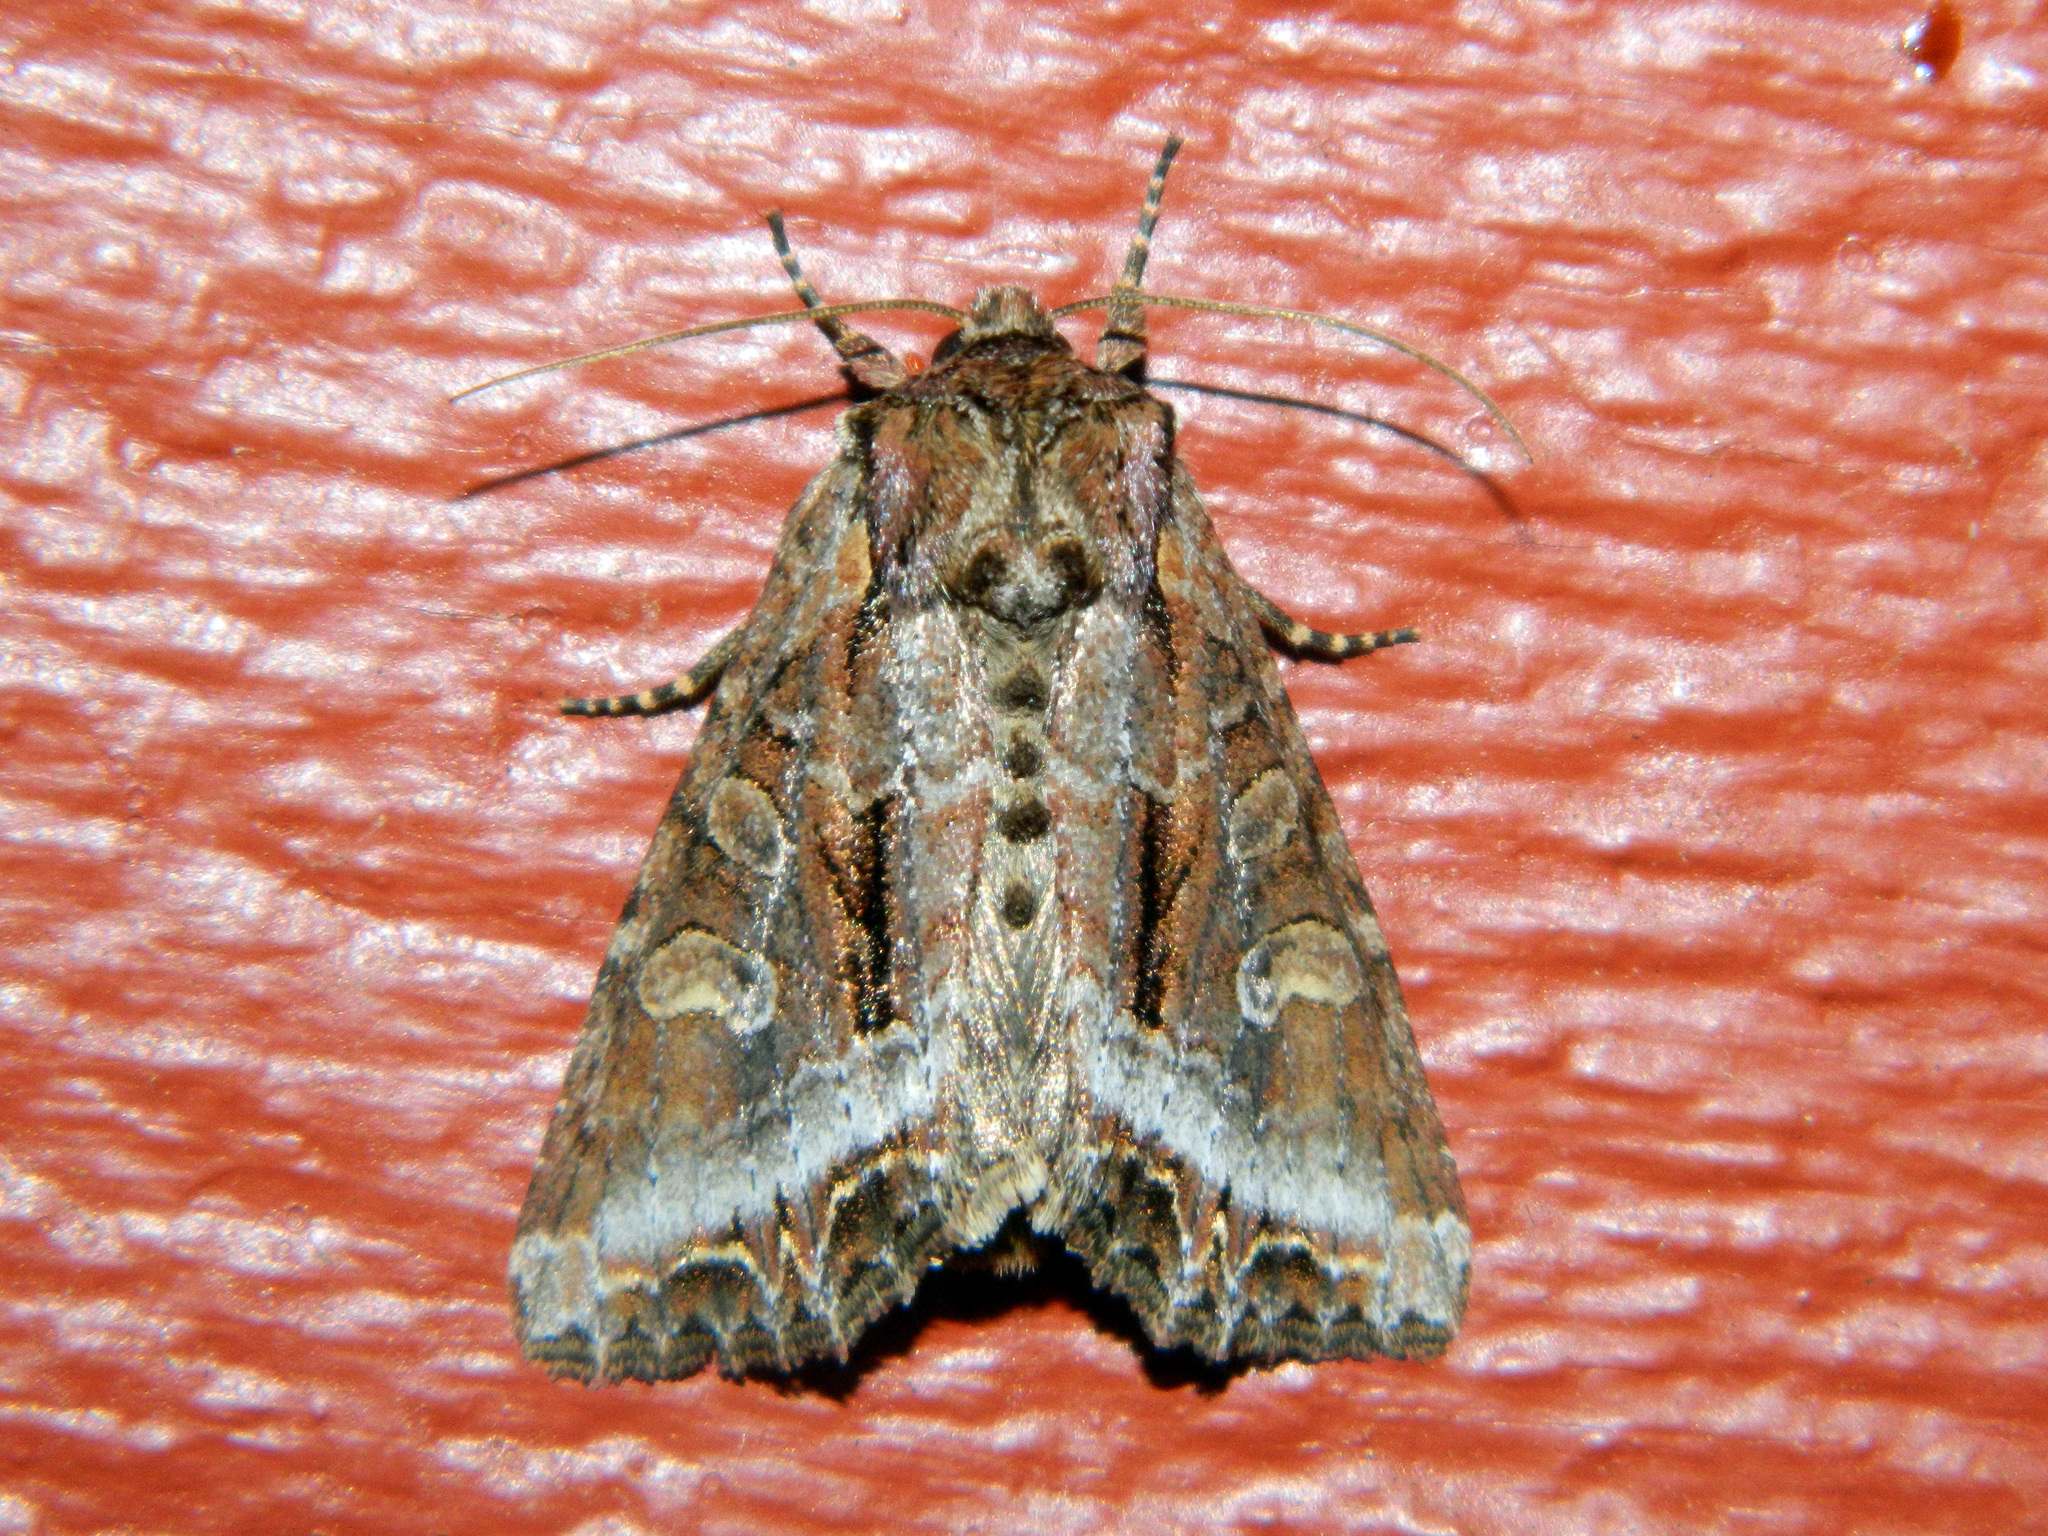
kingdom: Animalia
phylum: Arthropoda
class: Insecta
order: Lepidoptera
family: Noctuidae
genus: Lacanobia
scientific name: Lacanobia grandis
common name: Grand arches moth
